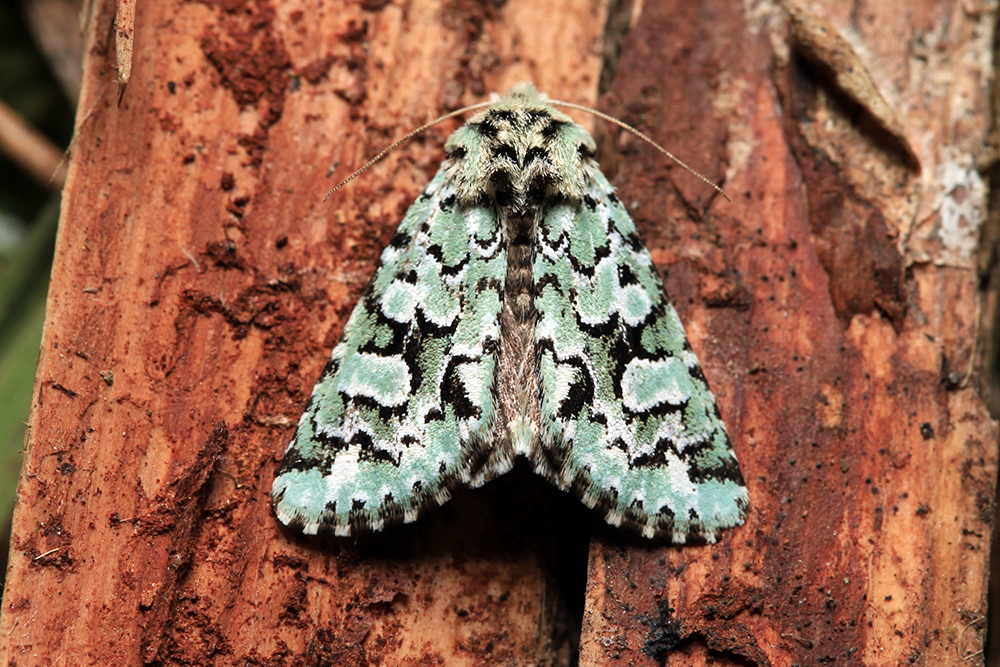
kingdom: Animalia
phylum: Arthropoda
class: Insecta
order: Lepidoptera
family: Noctuidae
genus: Feralia
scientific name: Feralia sauberi
